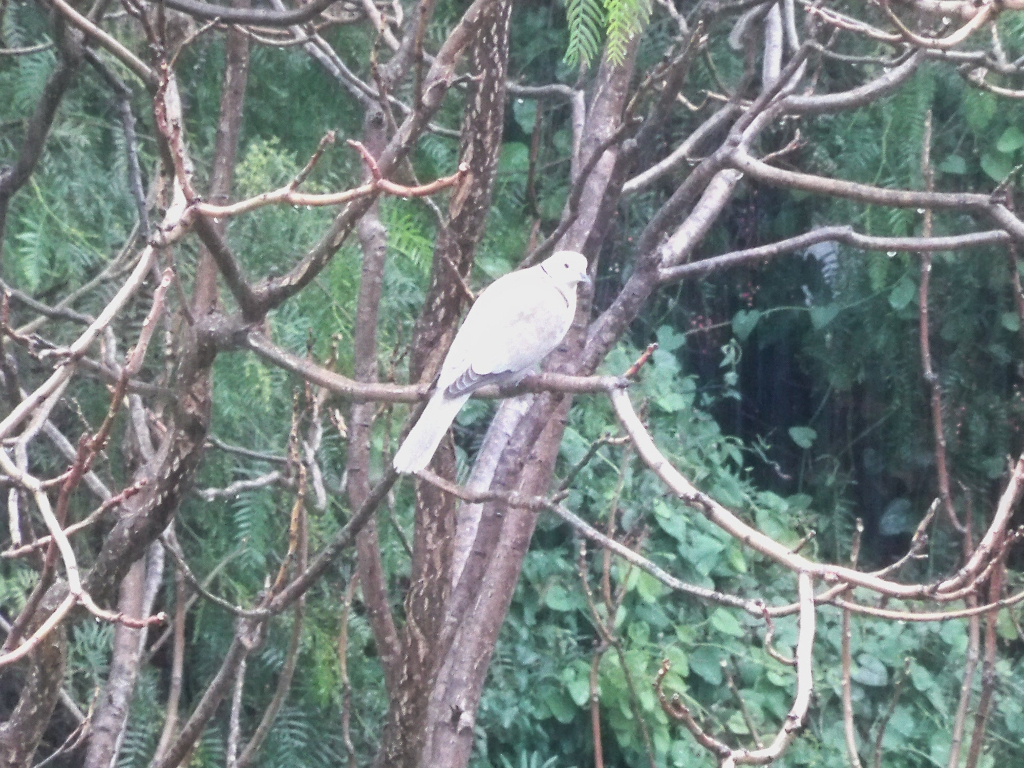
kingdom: Animalia
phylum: Chordata
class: Aves
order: Columbiformes
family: Columbidae
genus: Streptopelia
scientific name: Streptopelia decaocto
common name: Eurasian collared dove
